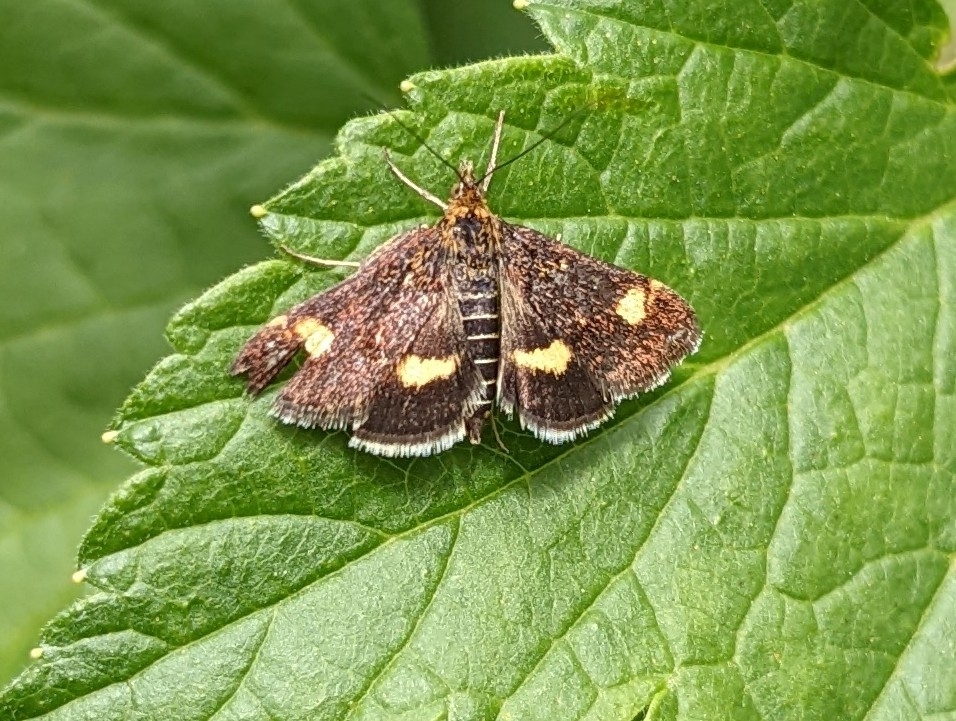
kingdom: Animalia
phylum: Arthropoda
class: Insecta
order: Lepidoptera
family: Crambidae
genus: Pyrausta
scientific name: Pyrausta aurata
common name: Small purple & gold
